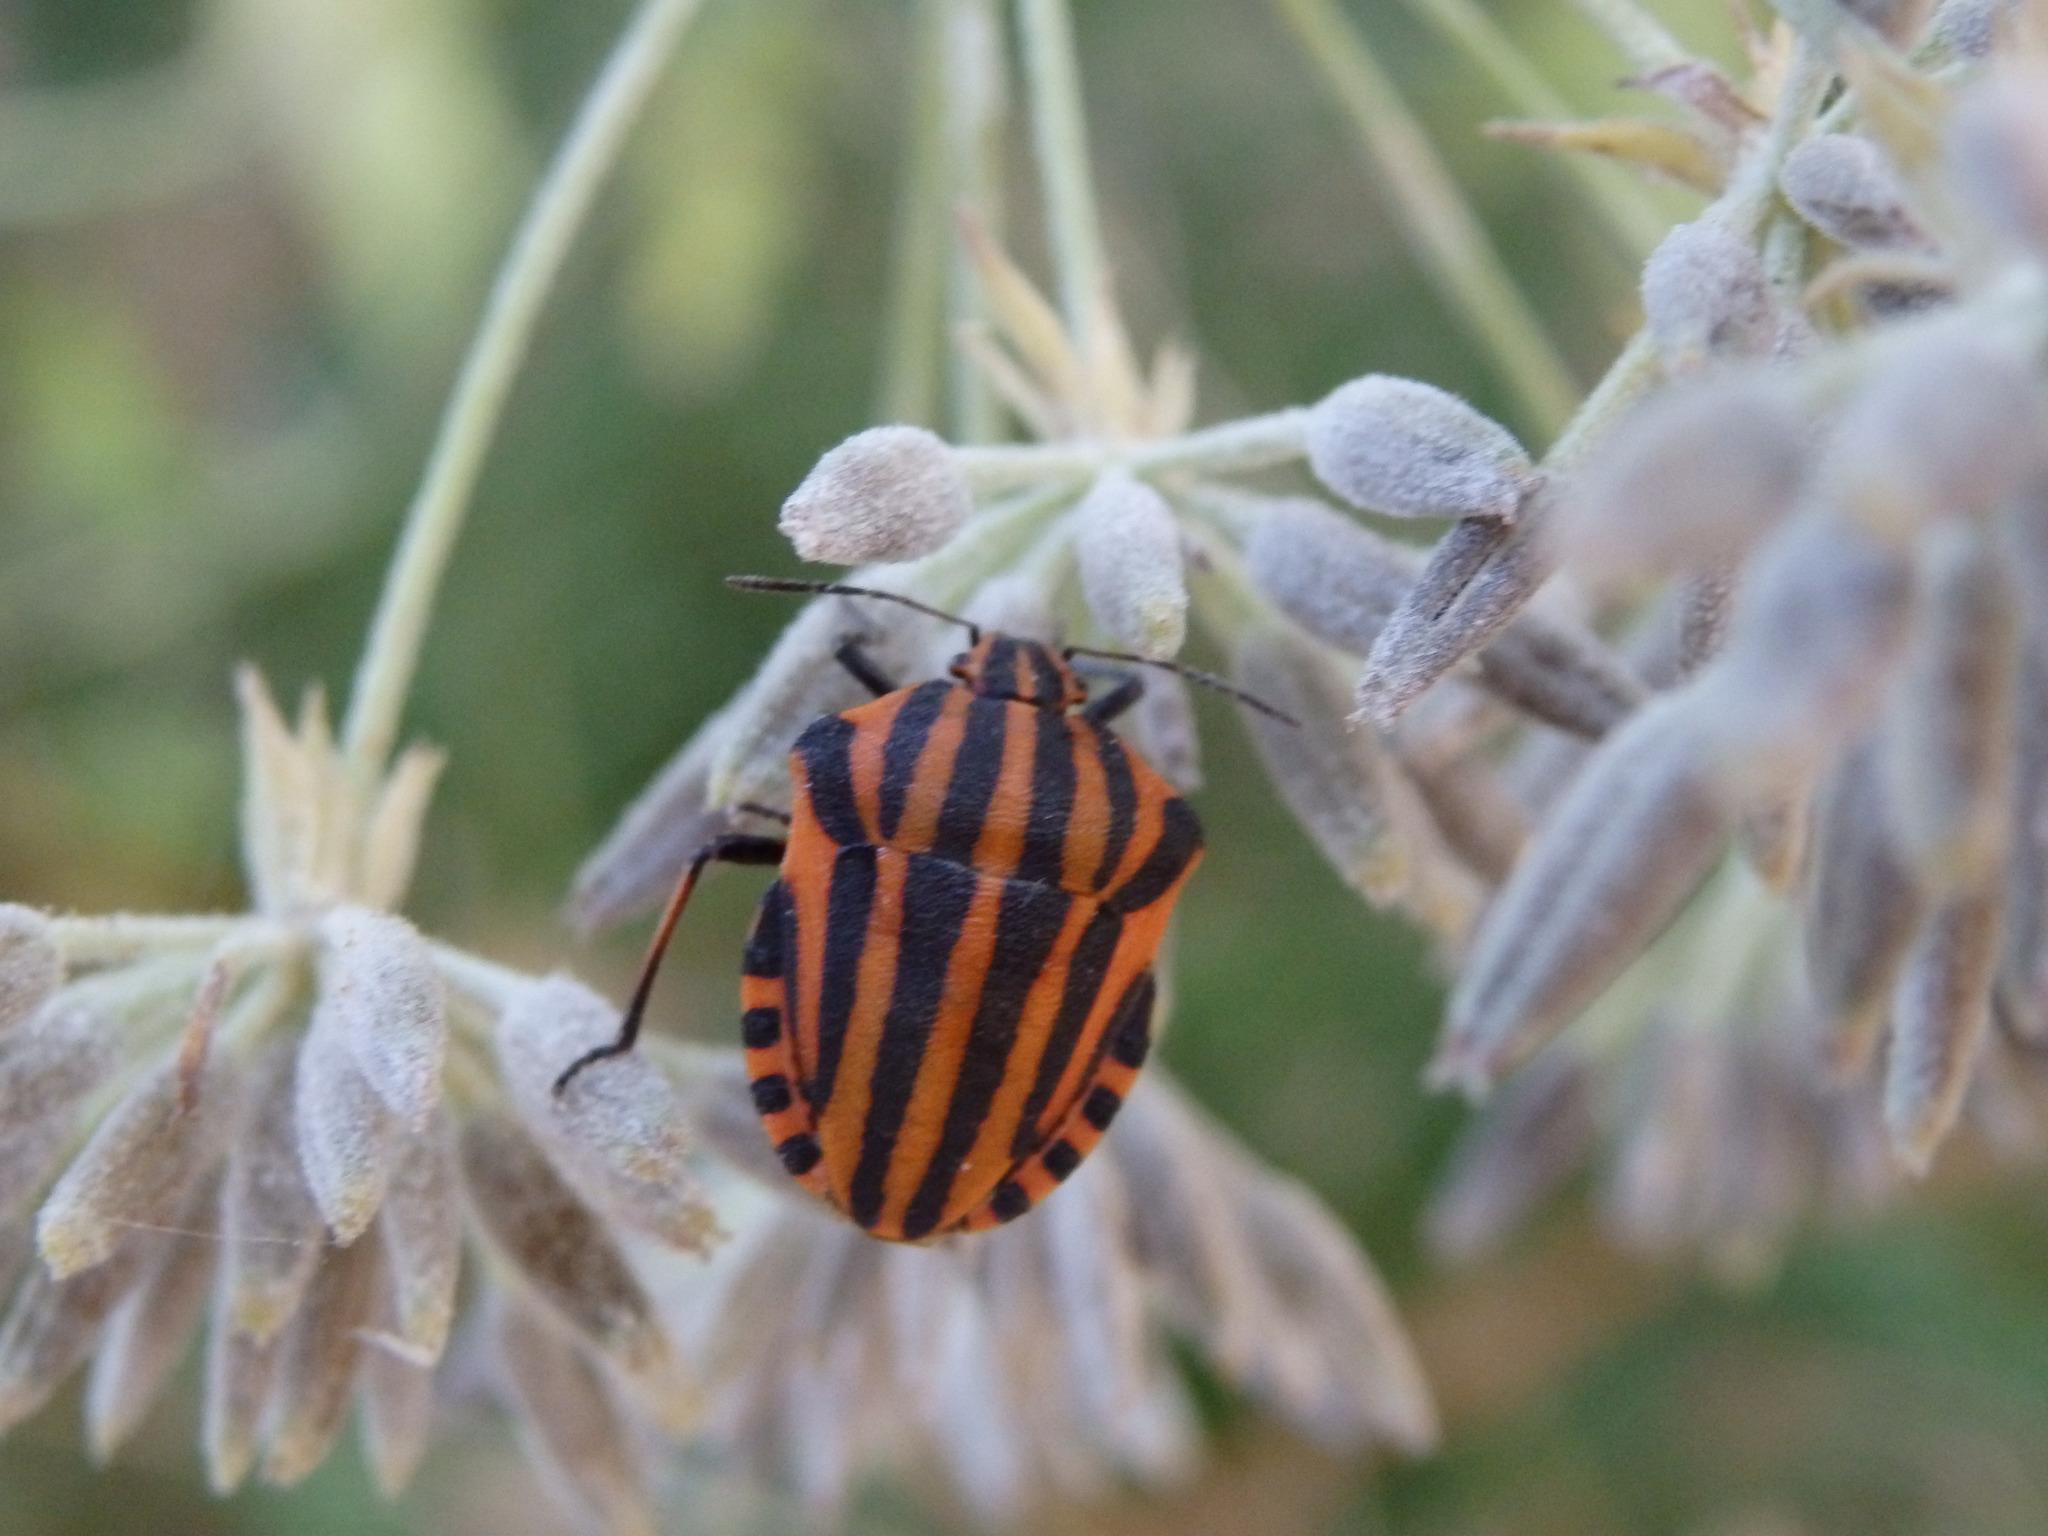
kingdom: Animalia
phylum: Arthropoda
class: Insecta
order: Hemiptera
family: Pentatomidae
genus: Graphosoma
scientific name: Graphosoma italicum
